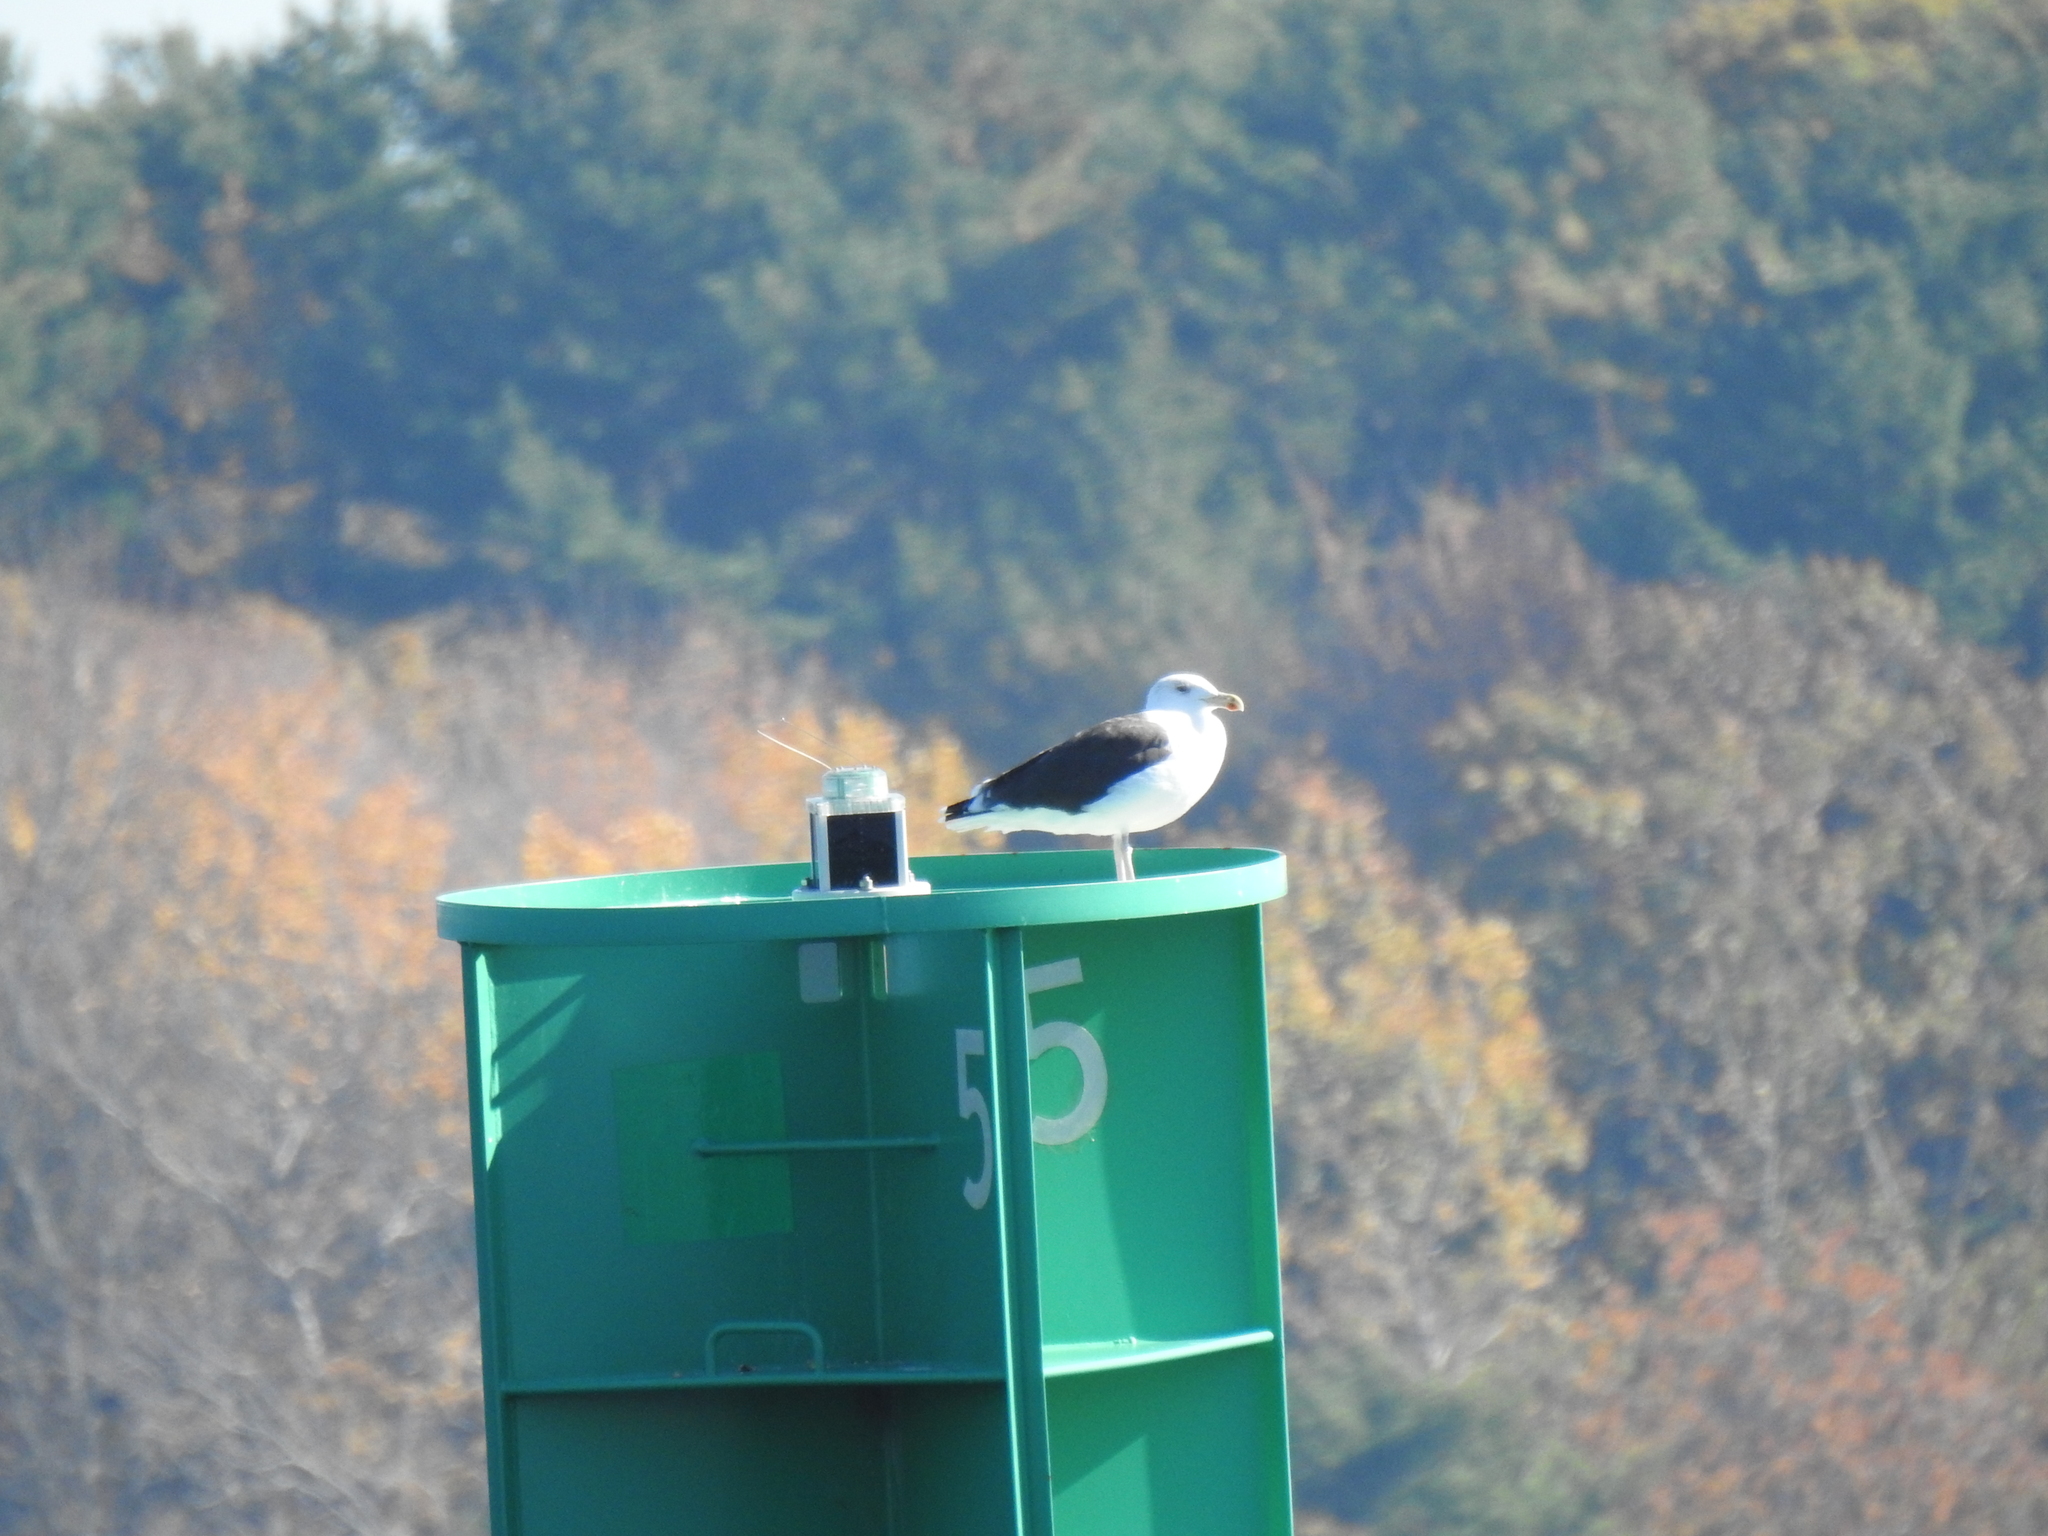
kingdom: Animalia
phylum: Chordata
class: Aves
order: Charadriiformes
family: Laridae
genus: Larus
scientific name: Larus marinus
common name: Great black-backed gull
